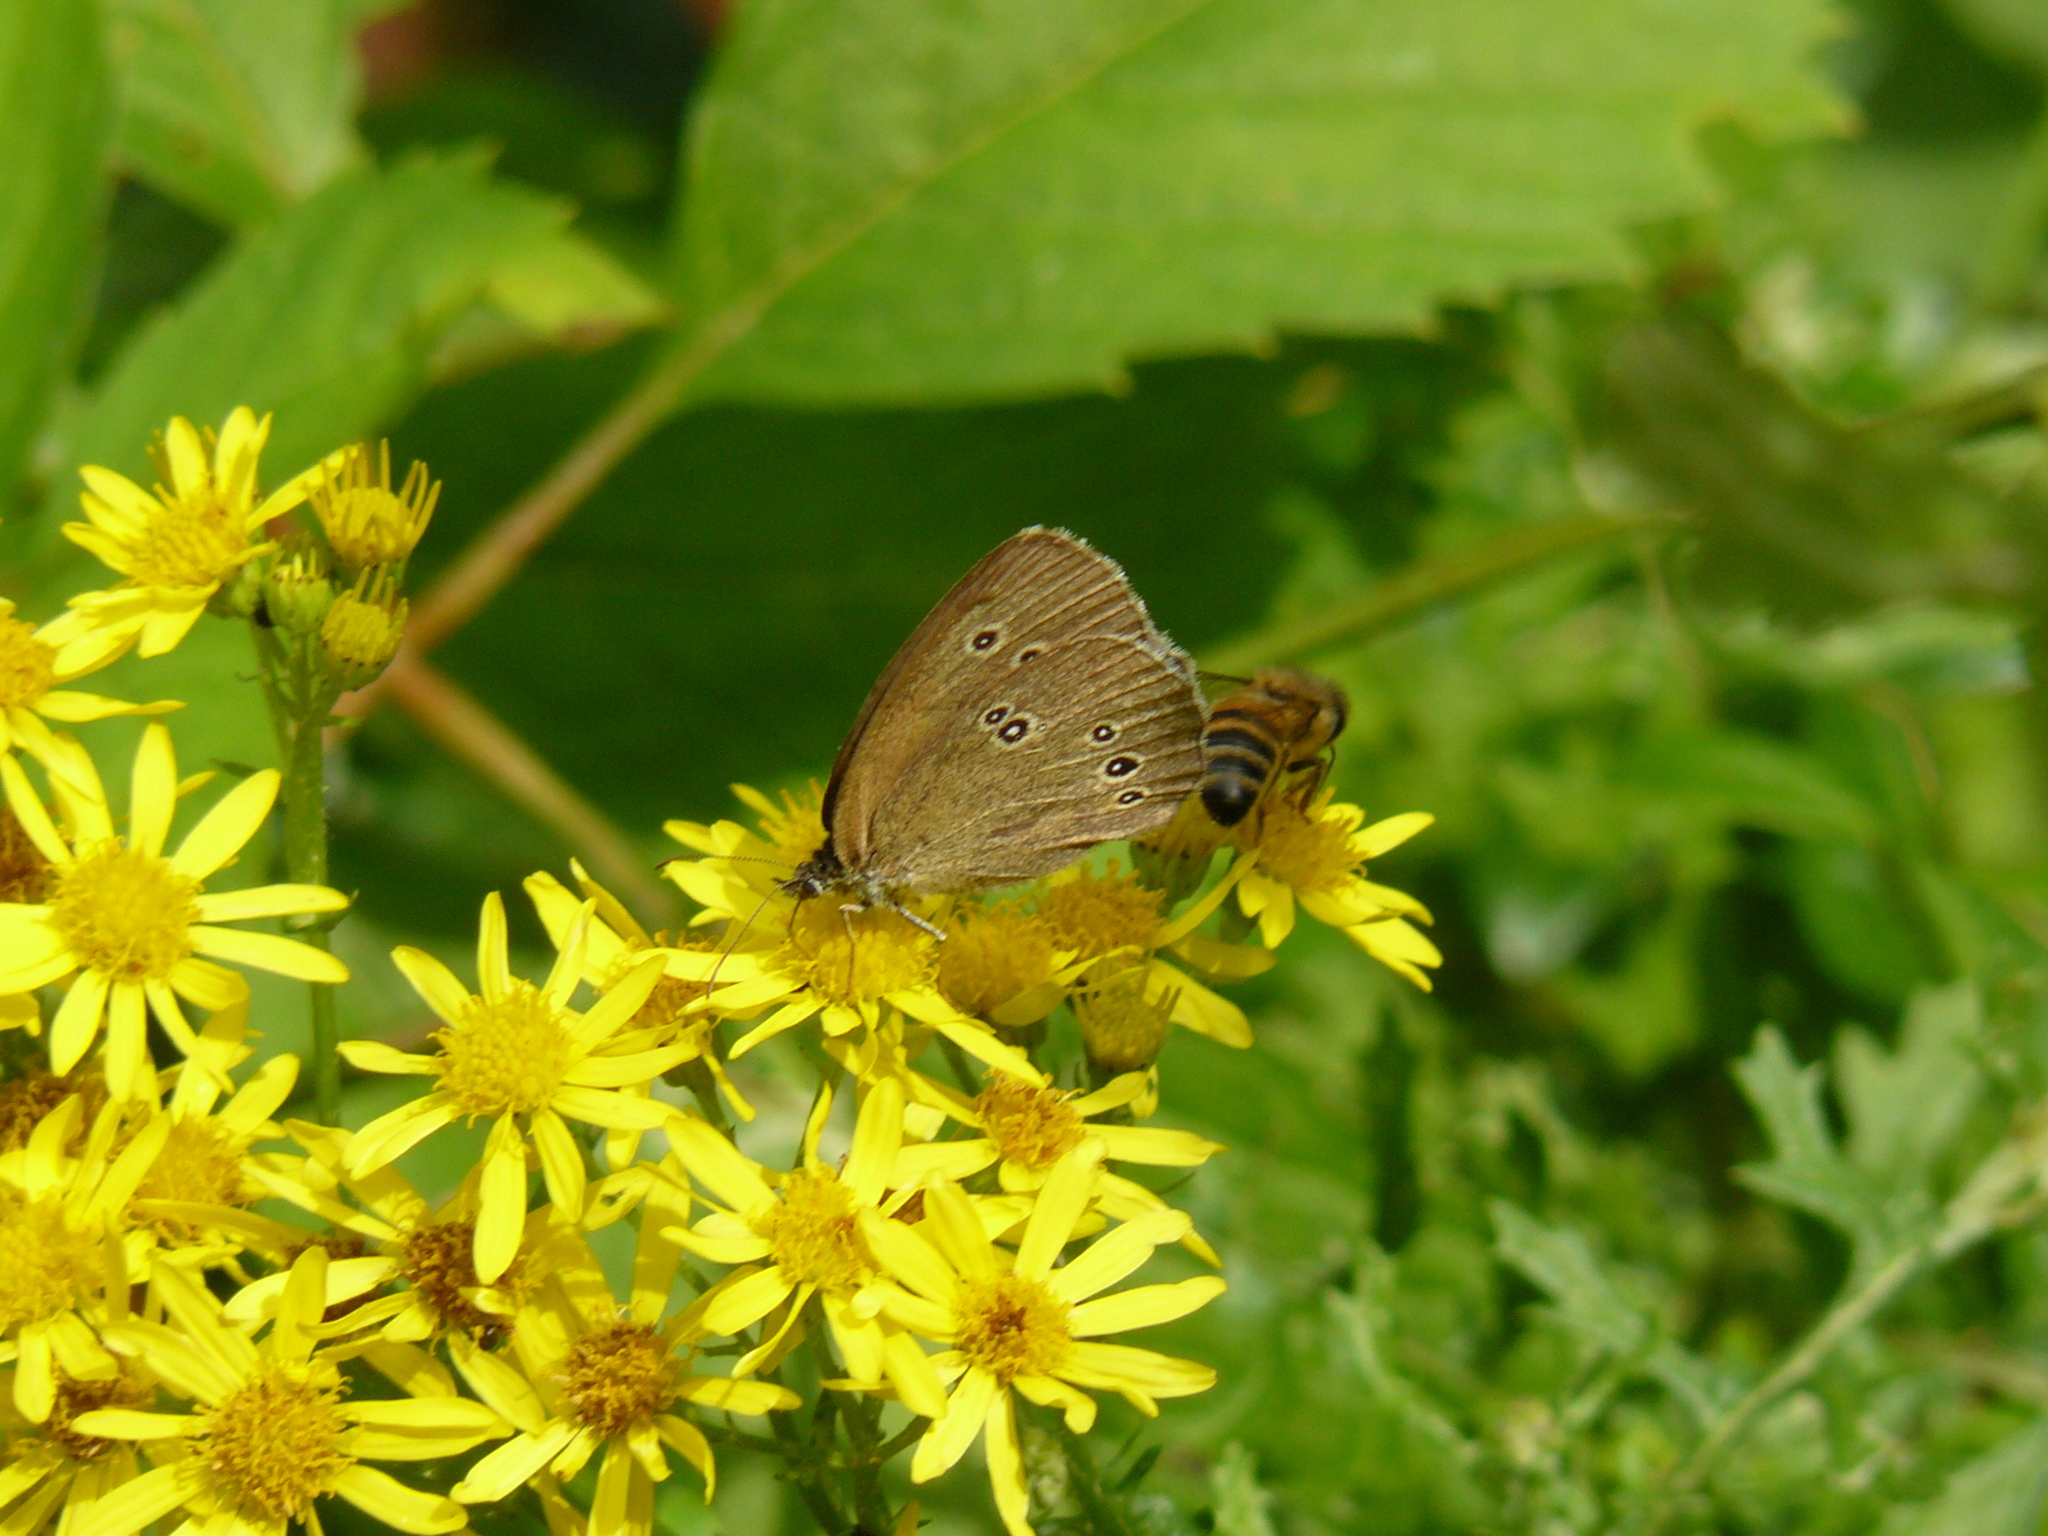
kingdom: Animalia
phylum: Arthropoda
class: Insecta
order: Lepidoptera
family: Nymphalidae
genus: Aphantopus
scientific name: Aphantopus hyperantus
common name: Ringlet
